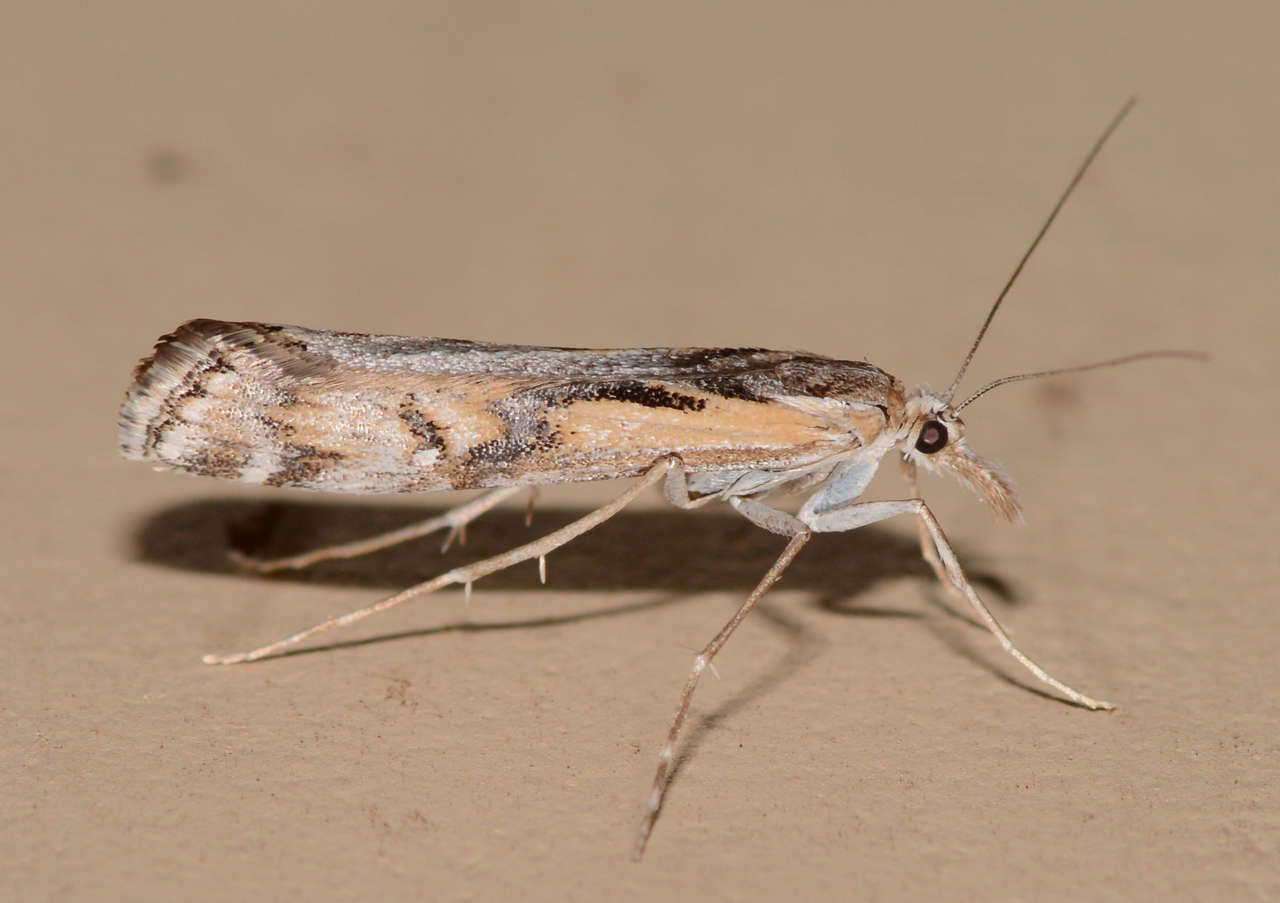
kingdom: Animalia
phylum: Arthropoda
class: Insecta
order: Lepidoptera
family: Crambidae
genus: Hednota
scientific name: Hednota pedionoma
